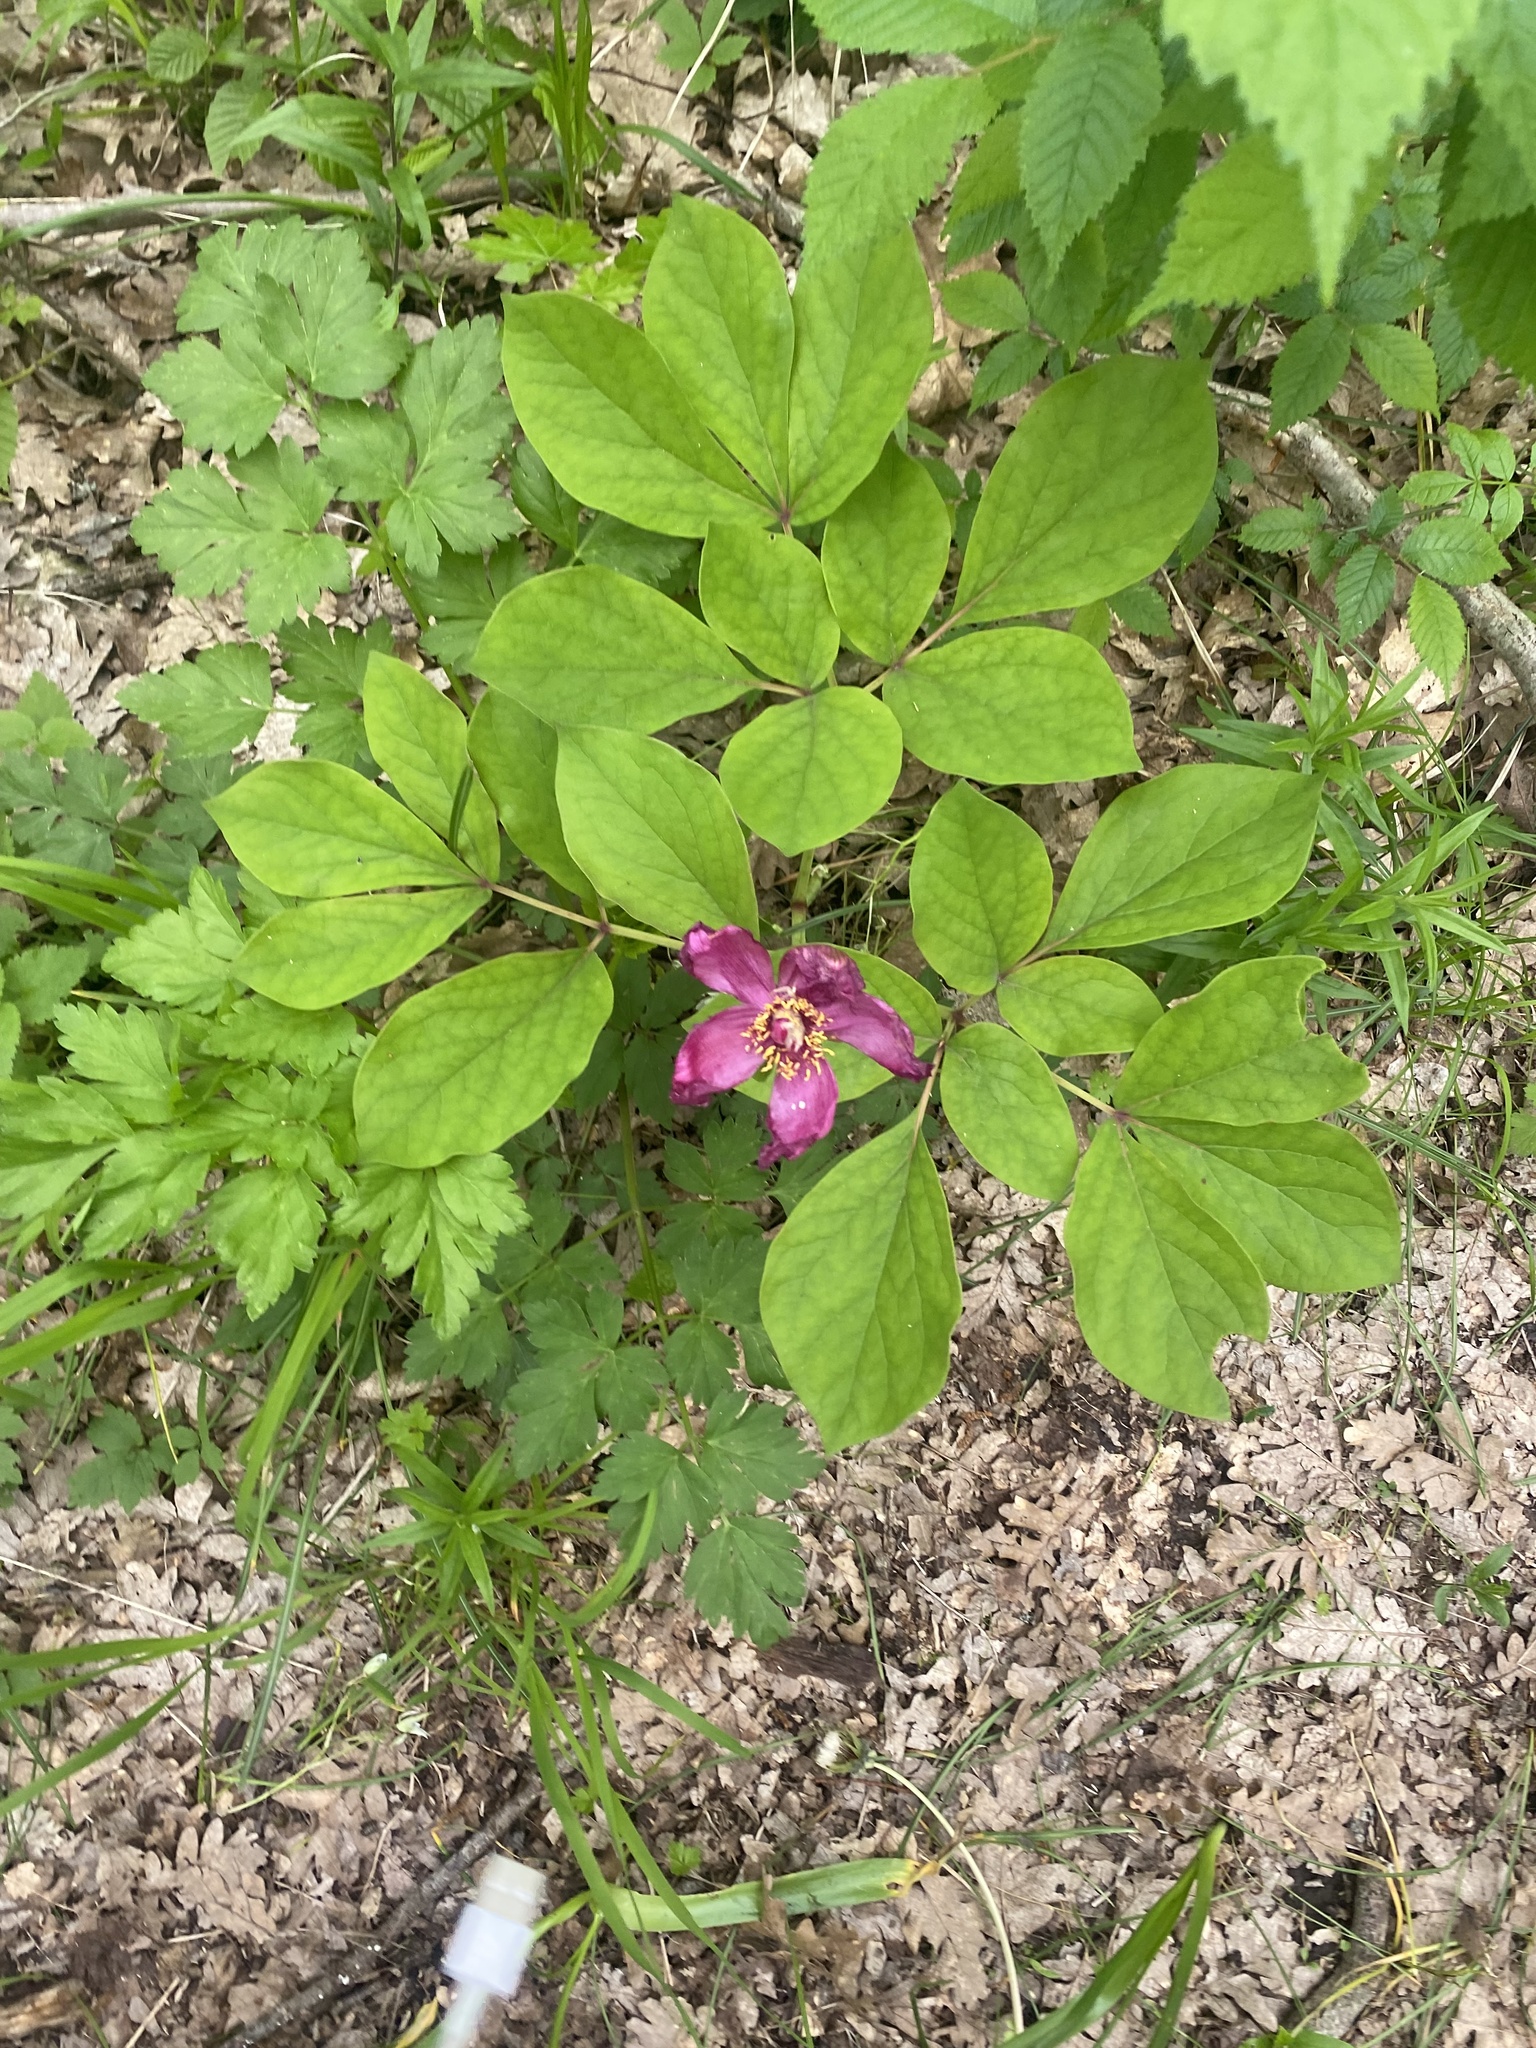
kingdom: Plantae
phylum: Tracheophyta
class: Magnoliopsida
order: Saxifragales
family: Paeoniaceae
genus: Paeonia
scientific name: Paeonia caucasica
